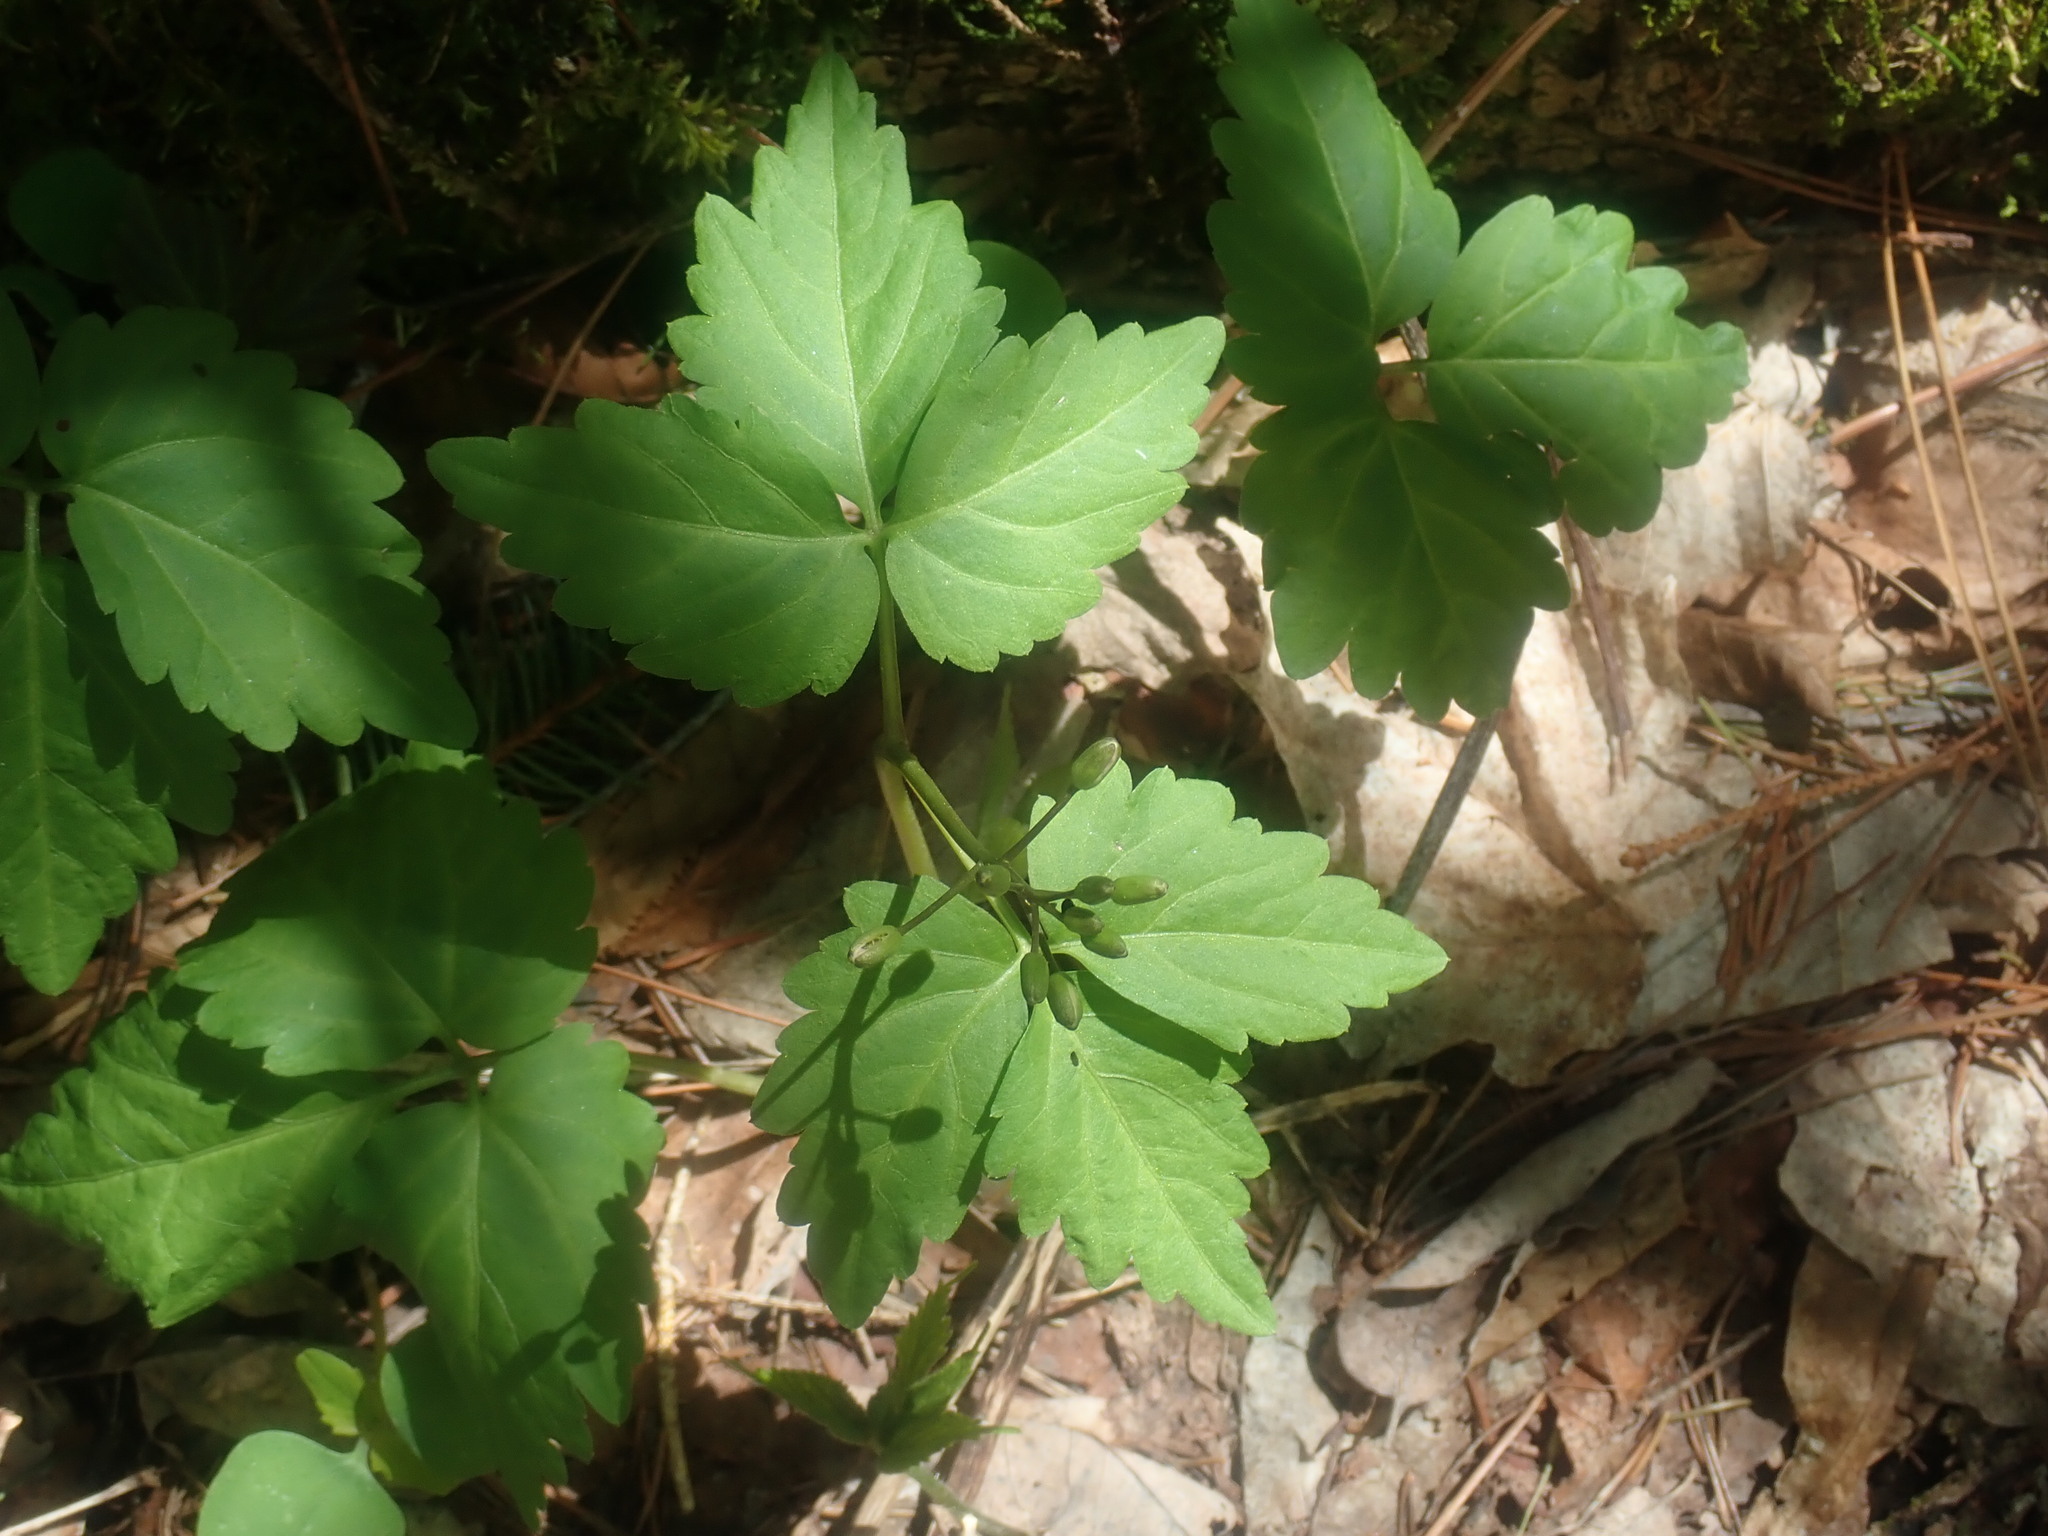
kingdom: Plantae
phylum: Tracheophyta
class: Magnoliopsida
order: Brassicales
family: Brassicaceae
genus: Cardamine
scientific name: Cardamine diphylla
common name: Broad-leaved toothwort
